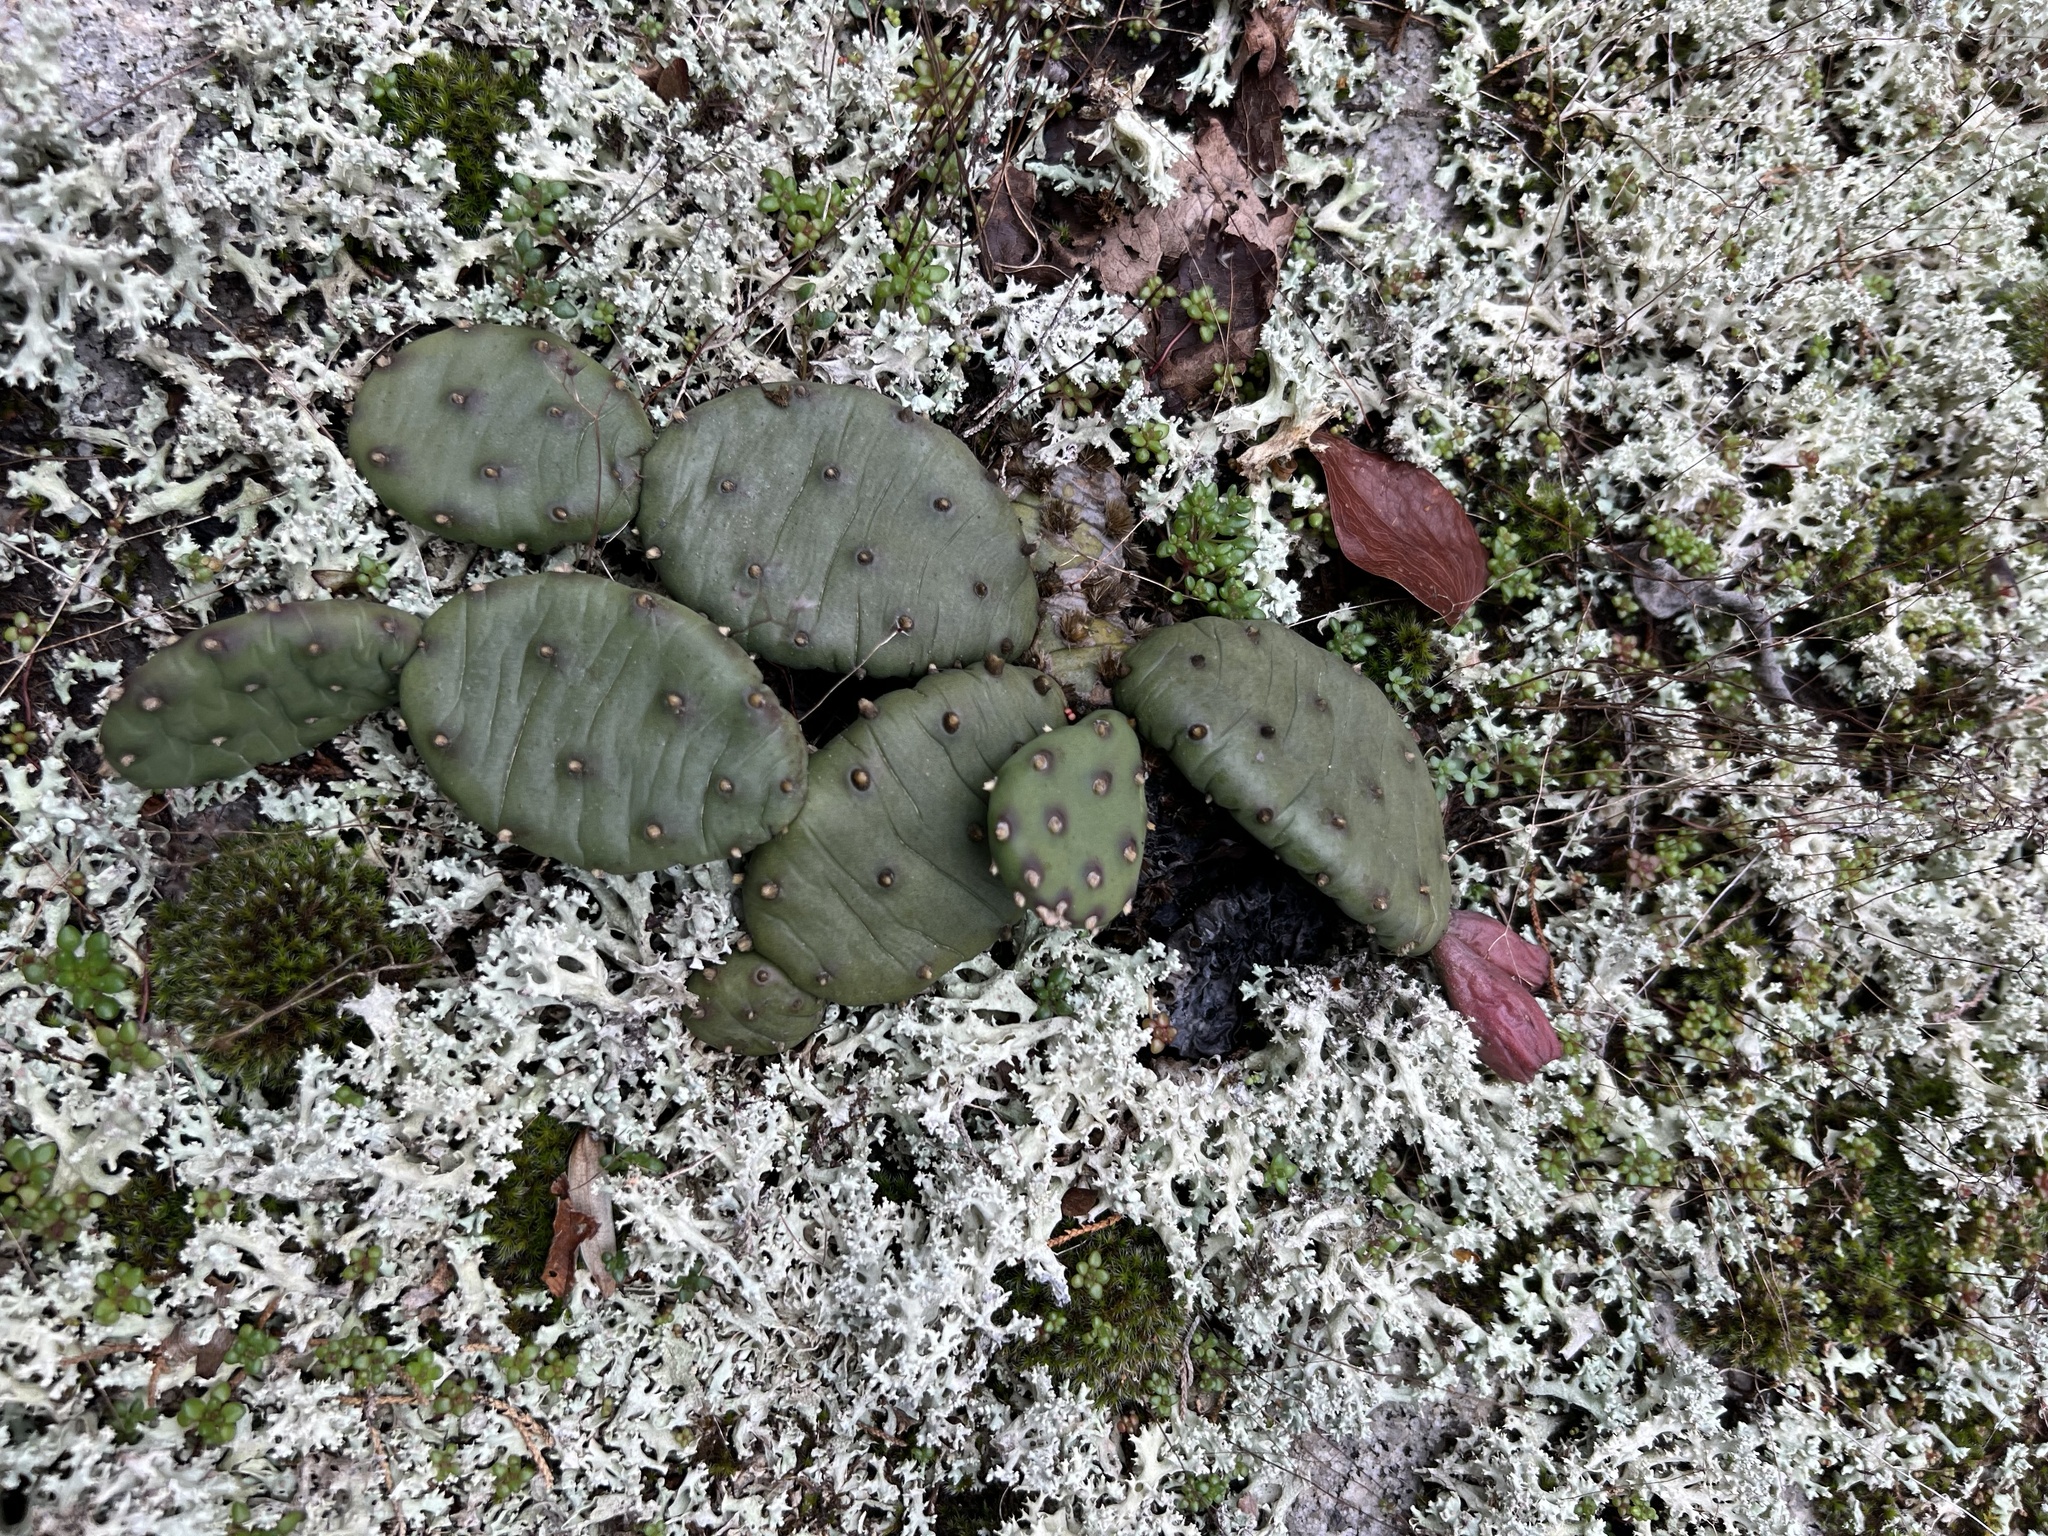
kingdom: Plantae
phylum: Tracheophyta
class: Magnoliopsida
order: Caryophyllales
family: Cactaceae
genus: Opuntia
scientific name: Opuntia mesacantha
